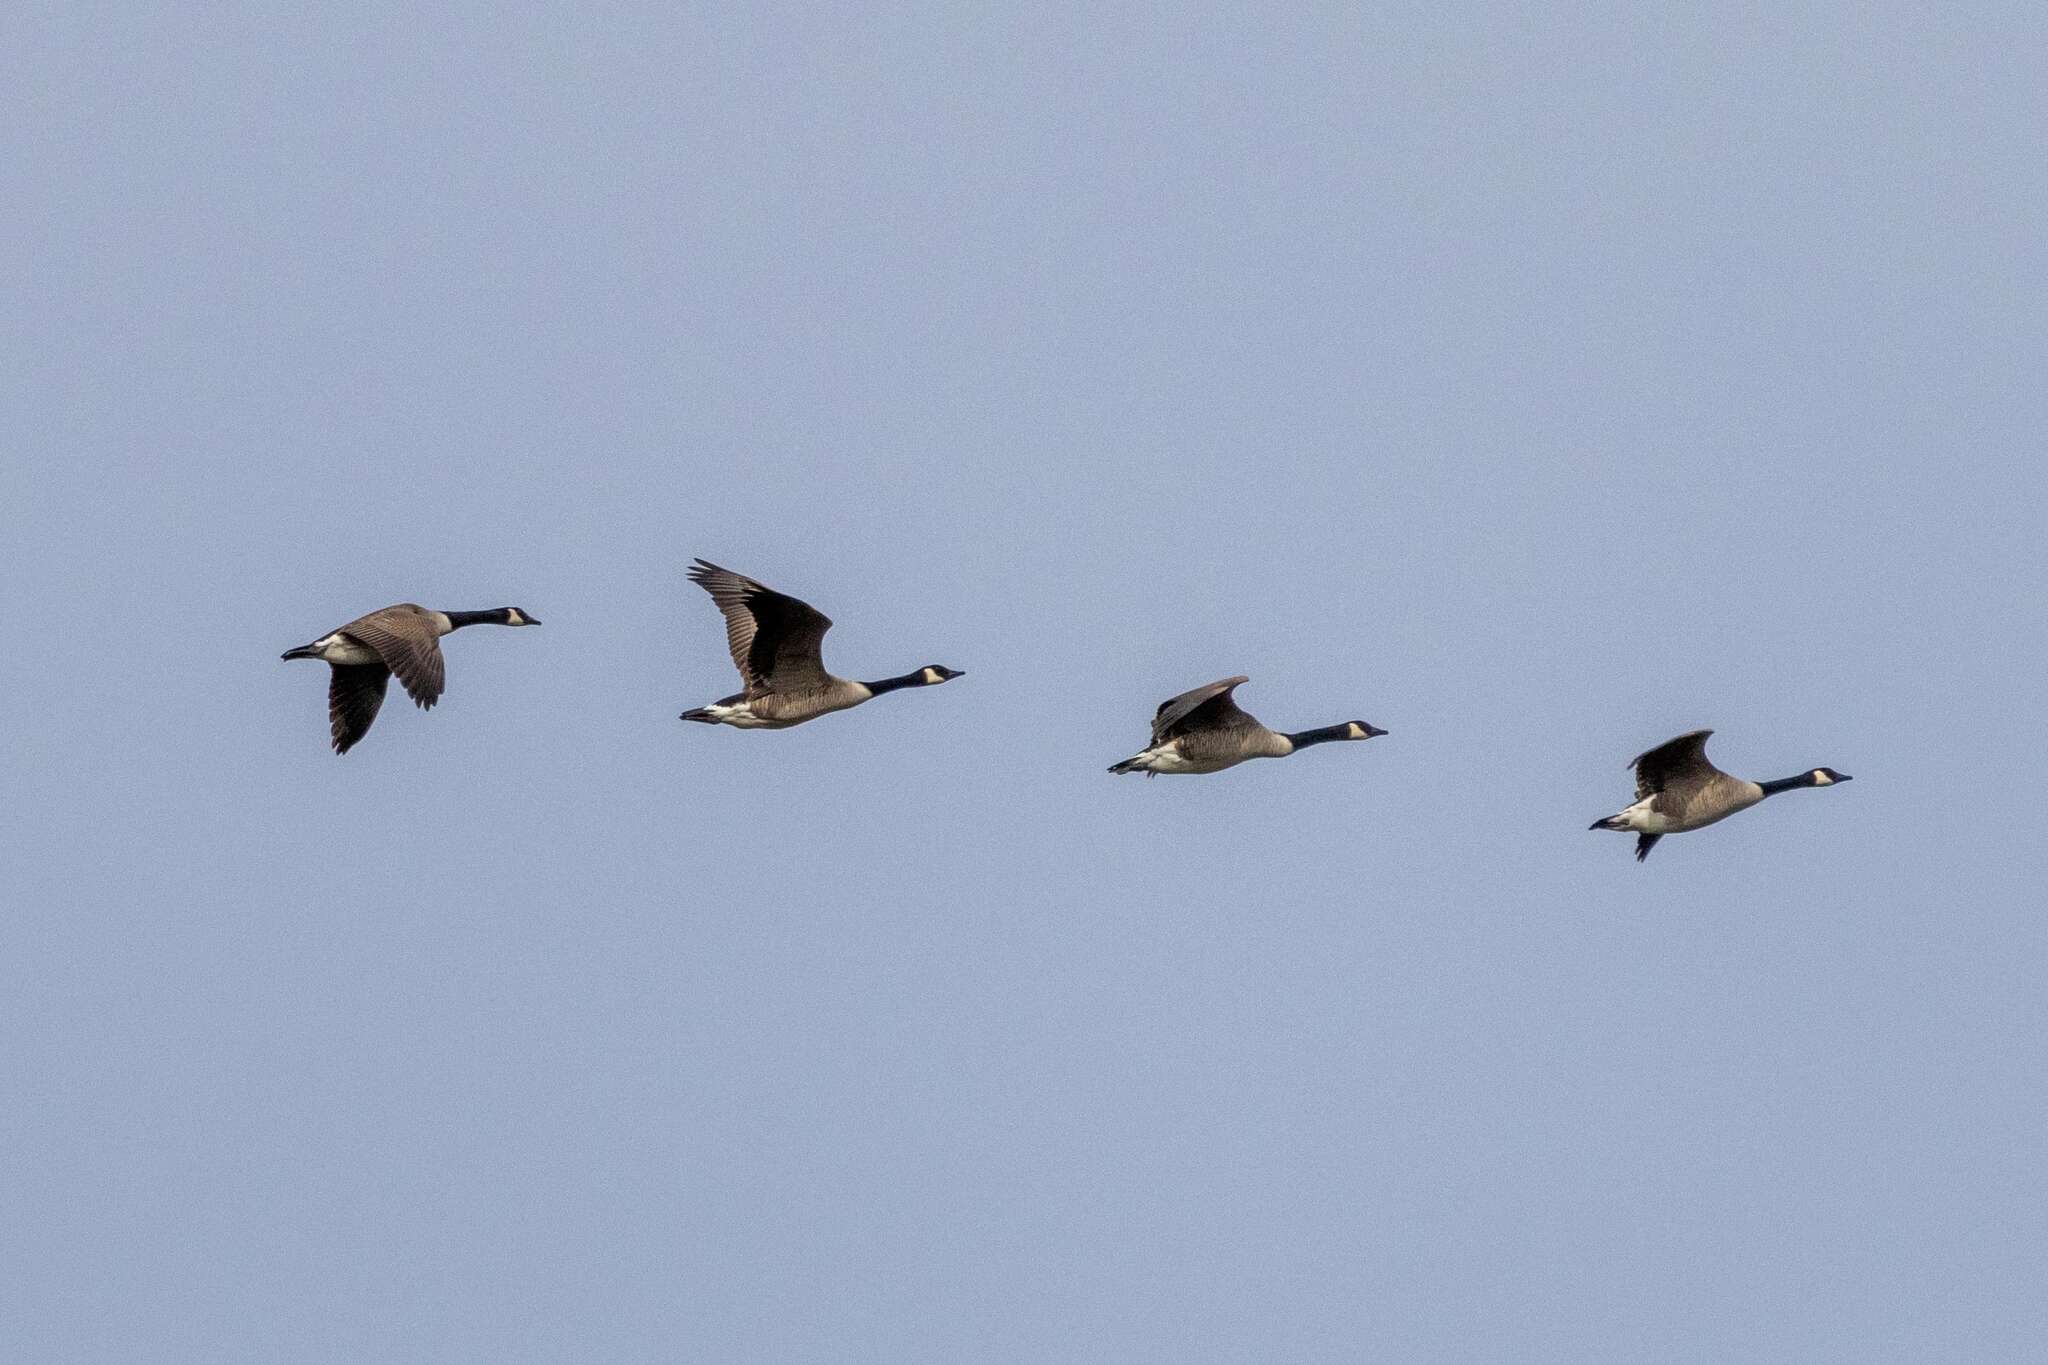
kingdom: Animalia
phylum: Chordata
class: Aves
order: Anseriformes
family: Anatidae
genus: Branta
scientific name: Branta canadensis
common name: Canada goose
